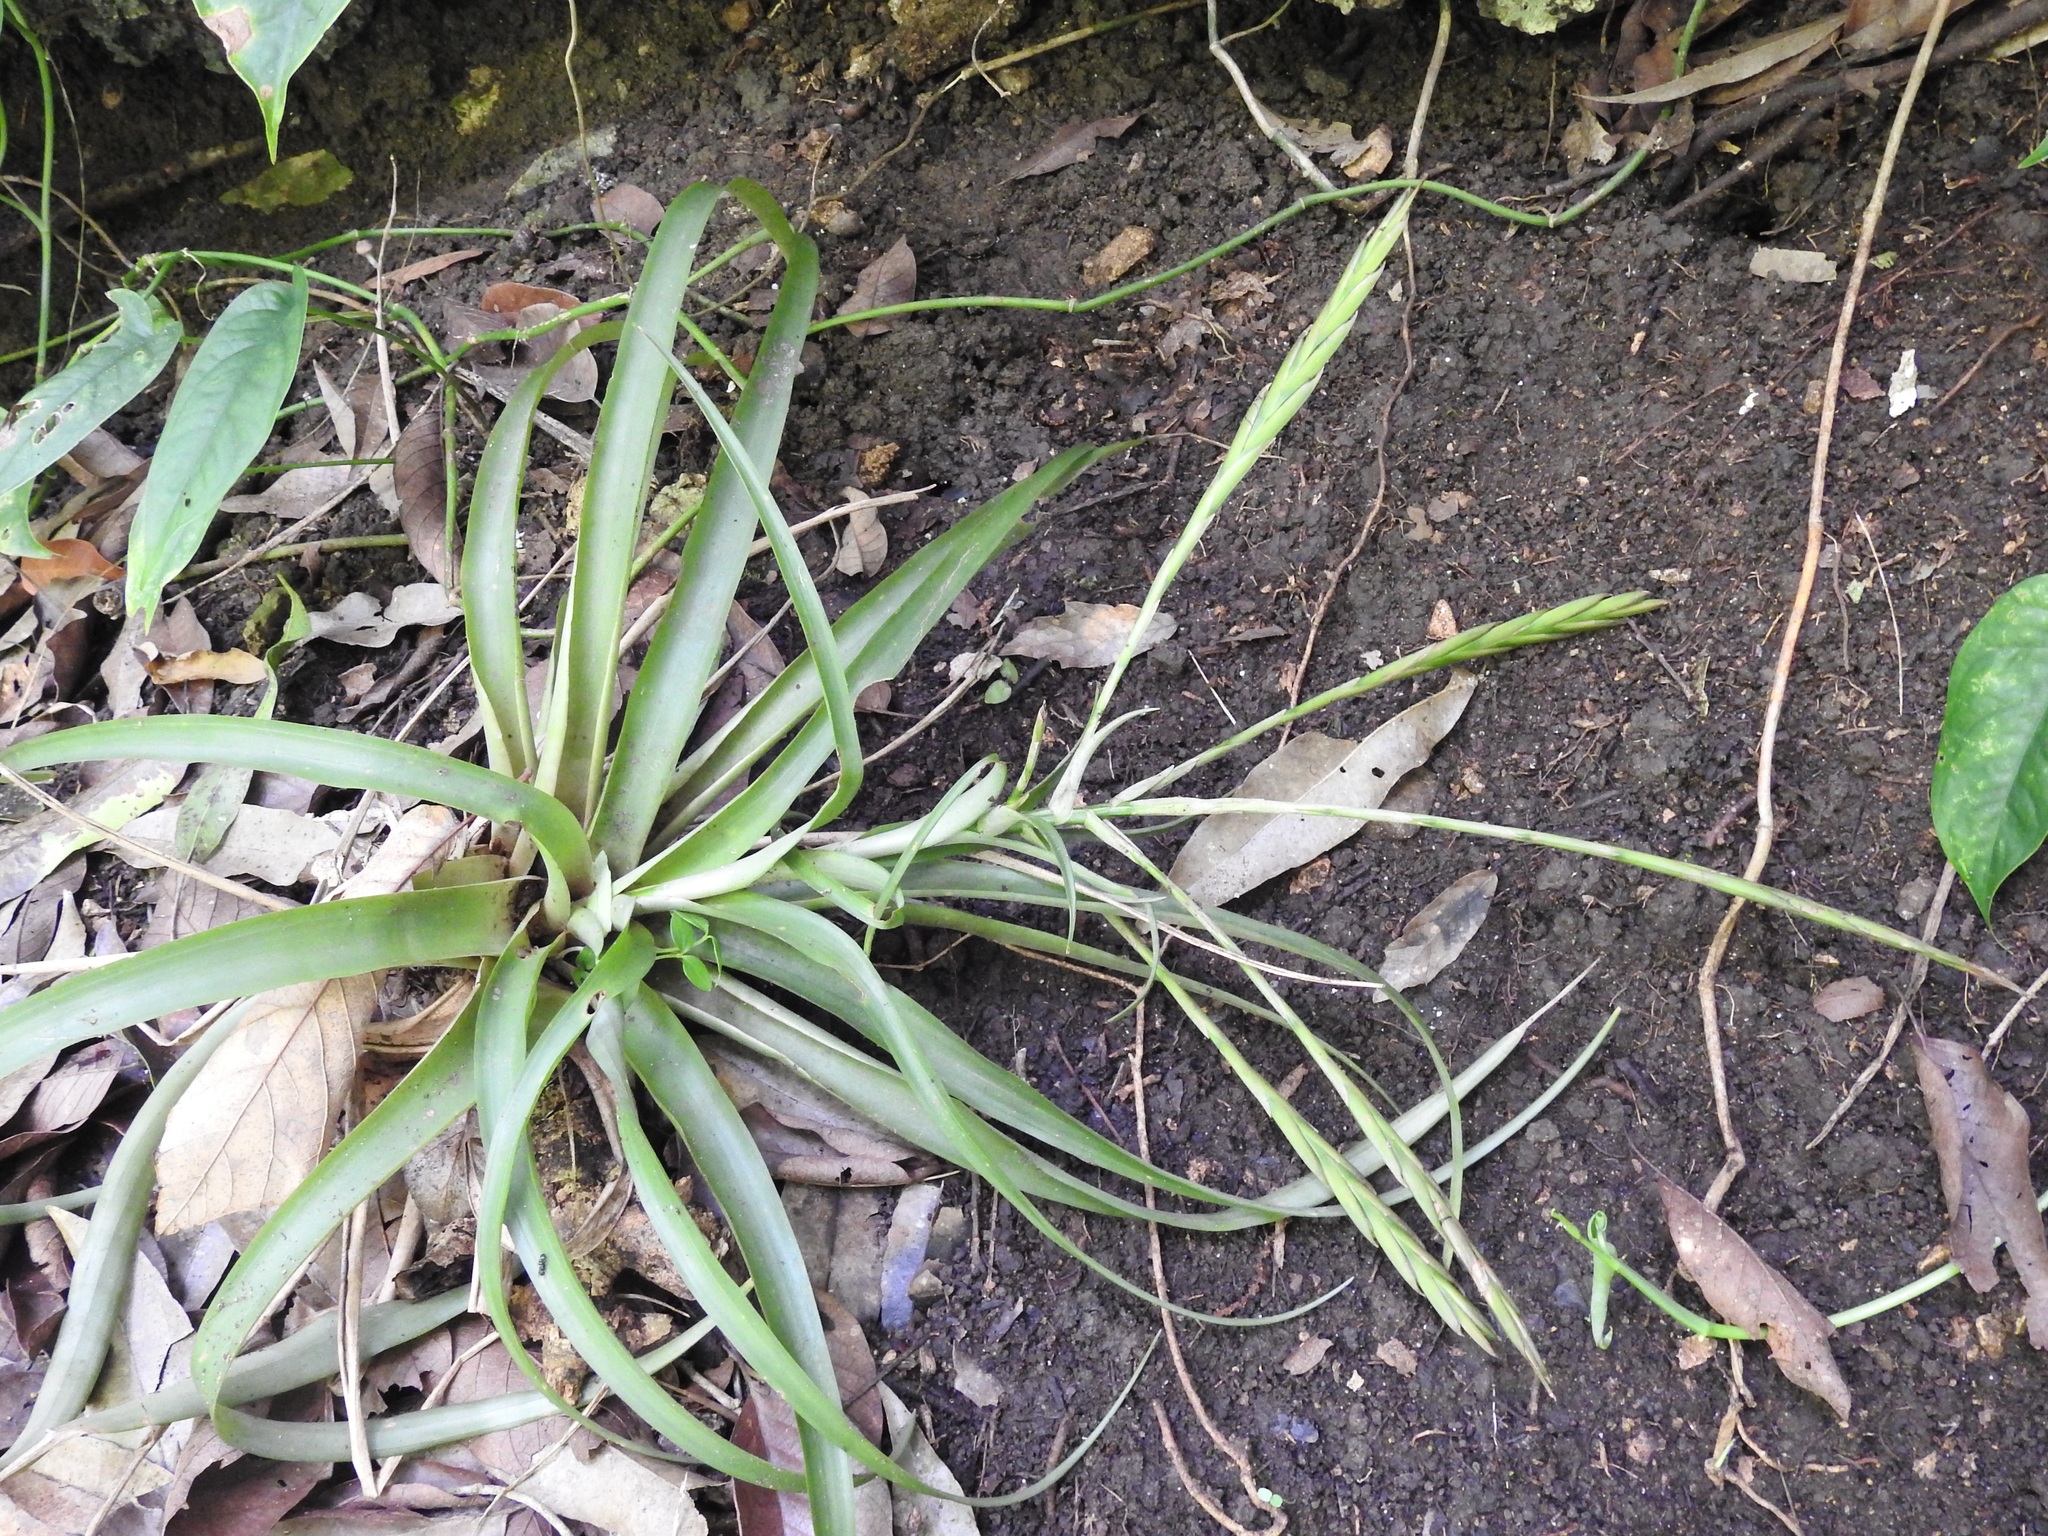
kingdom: Plantae
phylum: Tracheophyta
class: Liliopsida
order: Poales
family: Bromeliaceae
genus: Tillandsia
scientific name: Tillandsia flabellata
